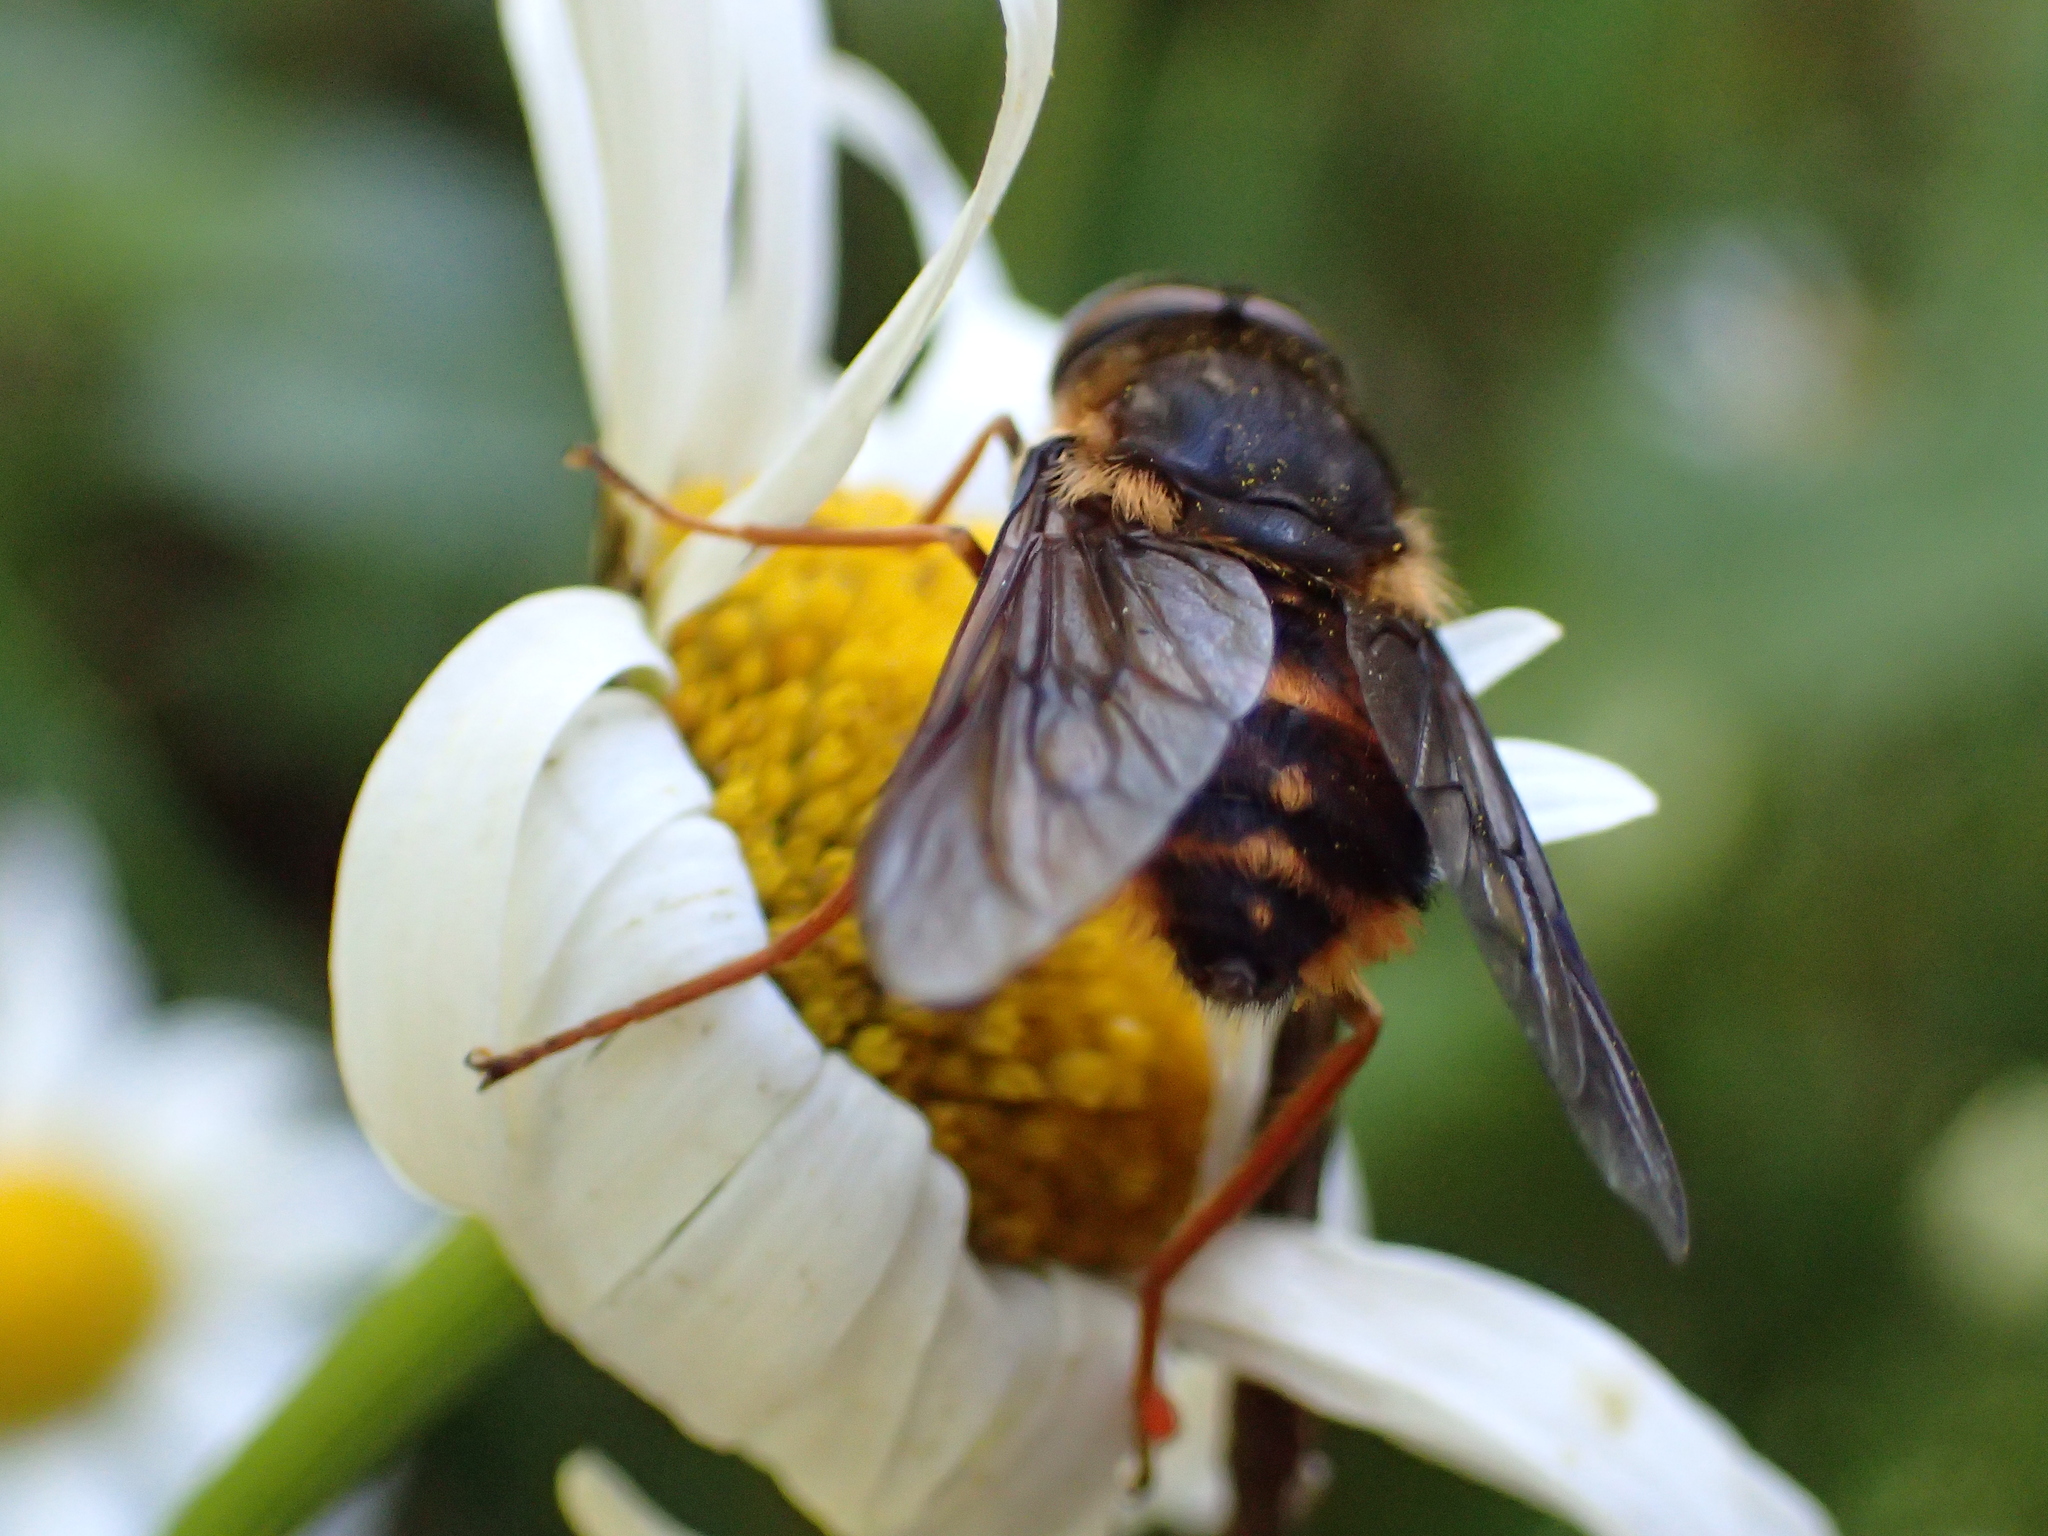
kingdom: Animalia
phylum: Arthropoda
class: Insecta
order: Diptera
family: Tabanidae
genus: Scaptia
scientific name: Scaptia
